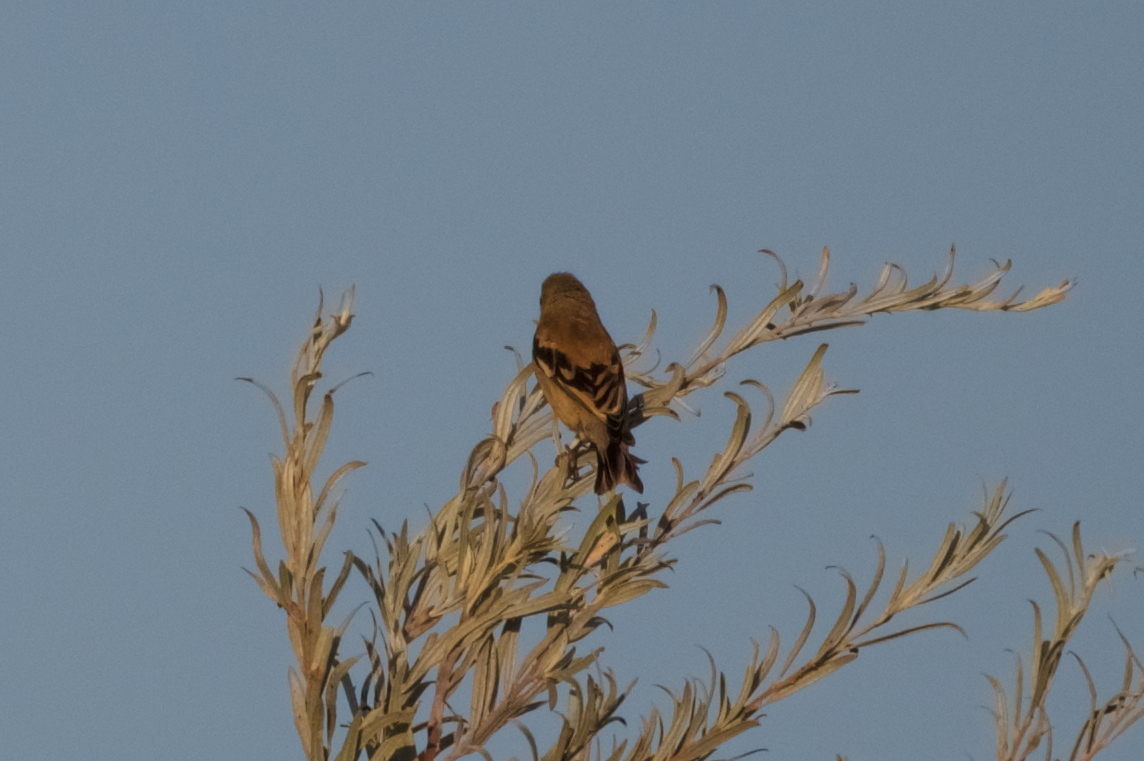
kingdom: Animalia
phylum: Chordata
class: Aves
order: Passeriformes
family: Fringillidae
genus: Spinus
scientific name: Spinus tristis
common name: American goldfinch
